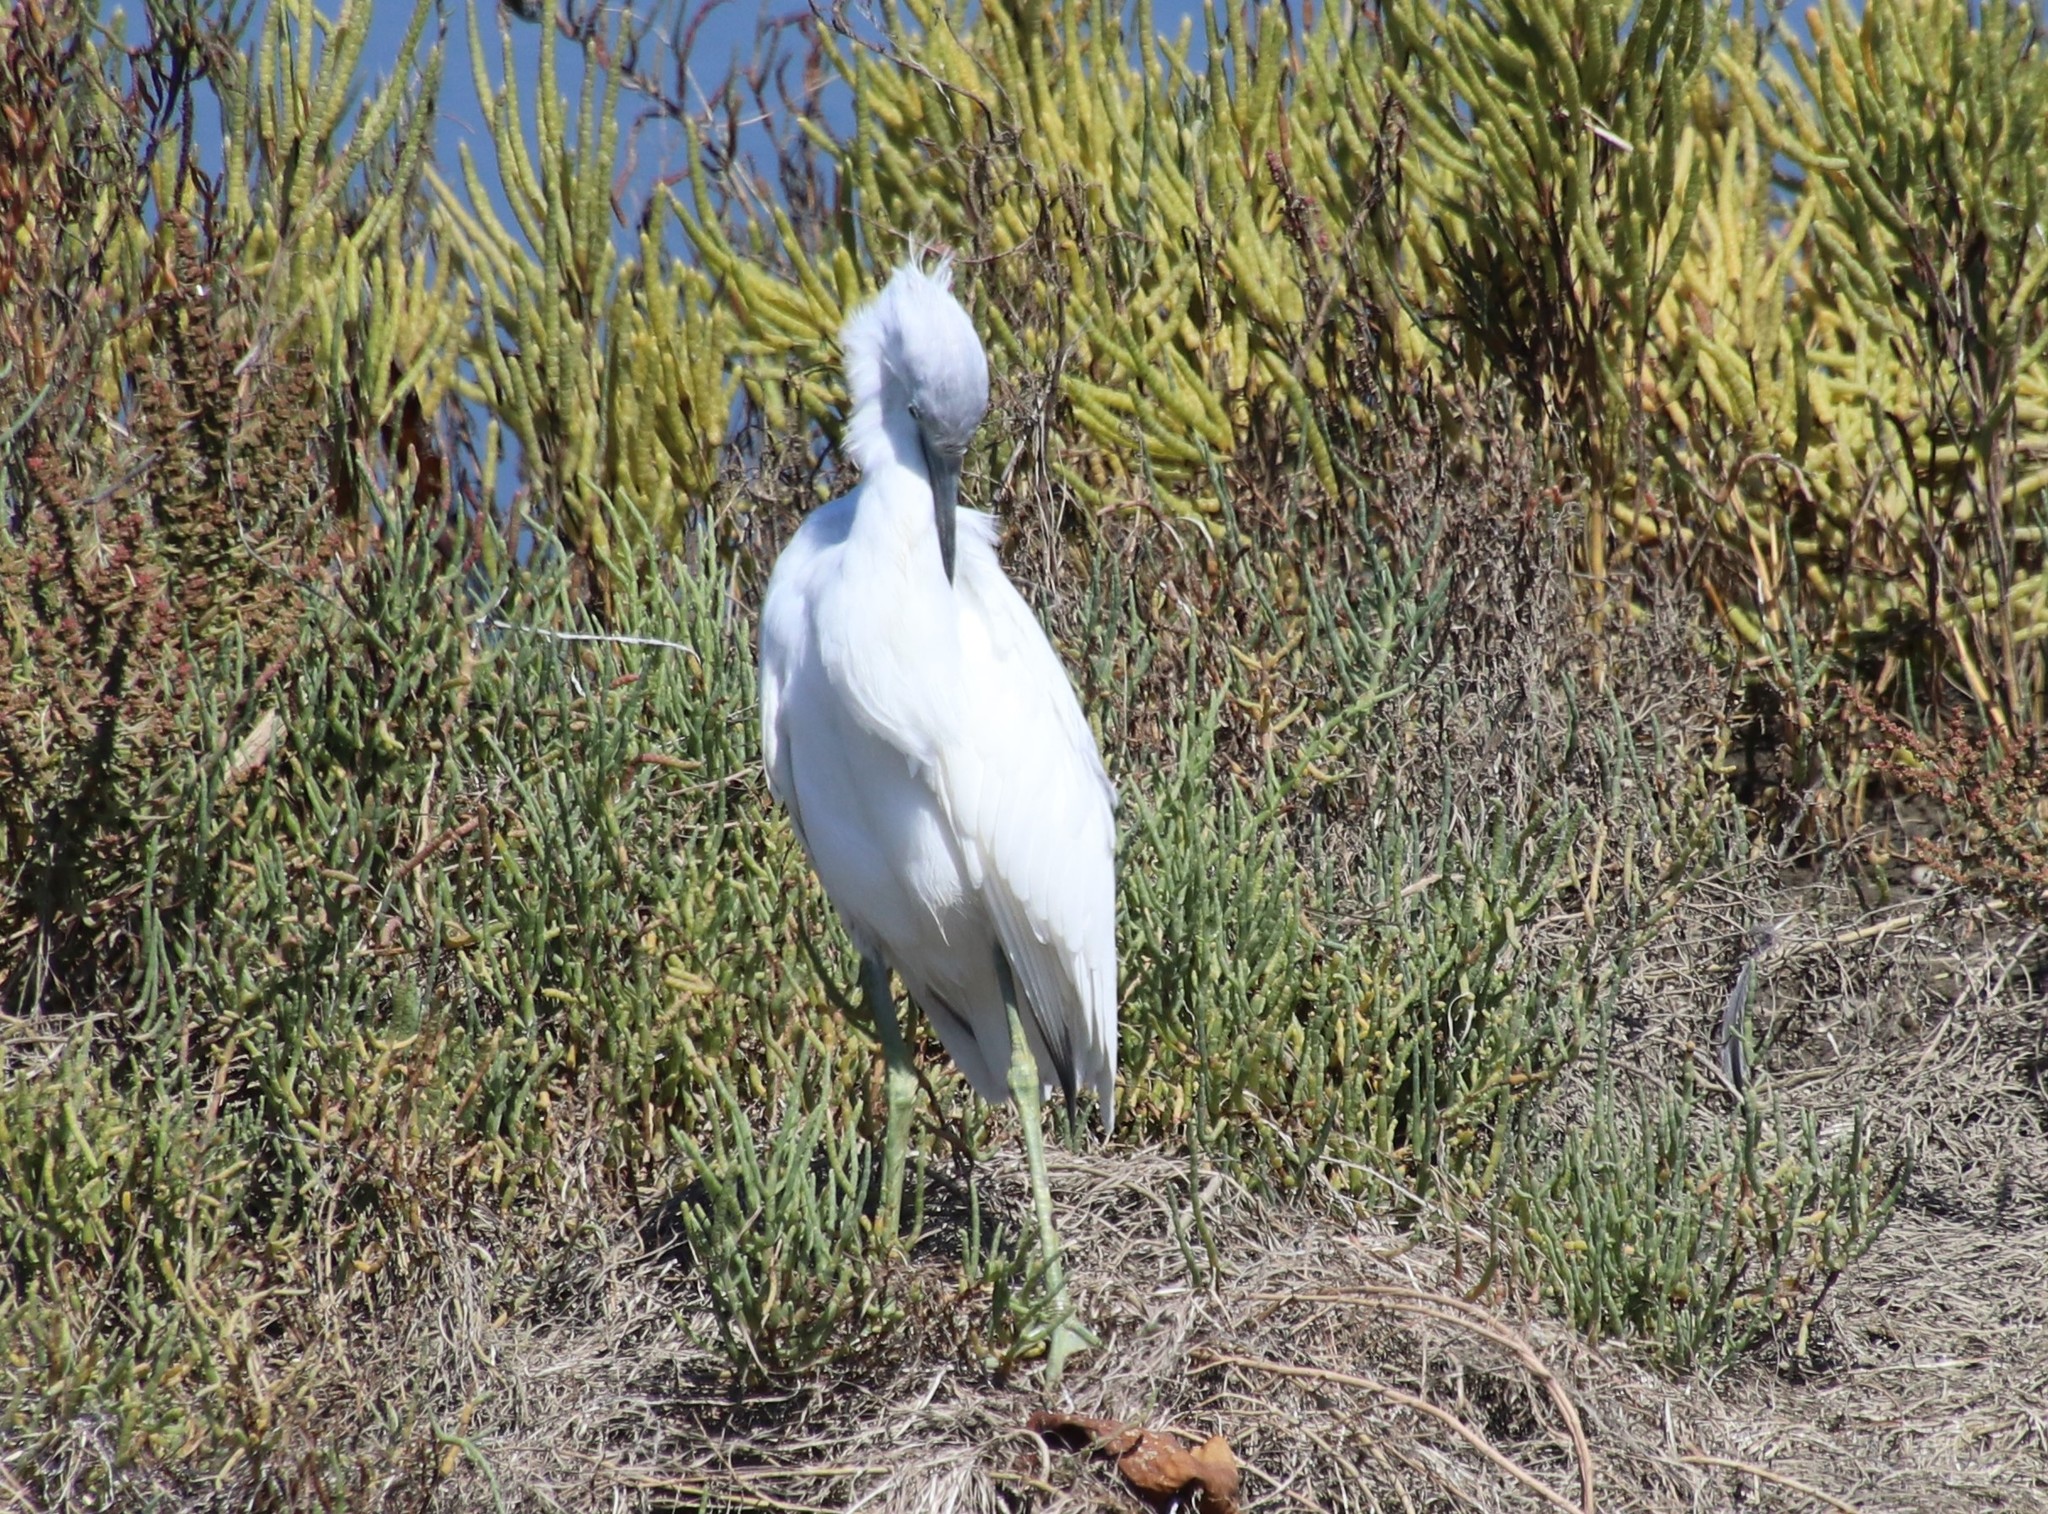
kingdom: Animalia
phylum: Chordata
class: Aves
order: Pelecaniformes
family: Ardeidae
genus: Egretta
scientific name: Egretta caerulea
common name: Little blue heron
